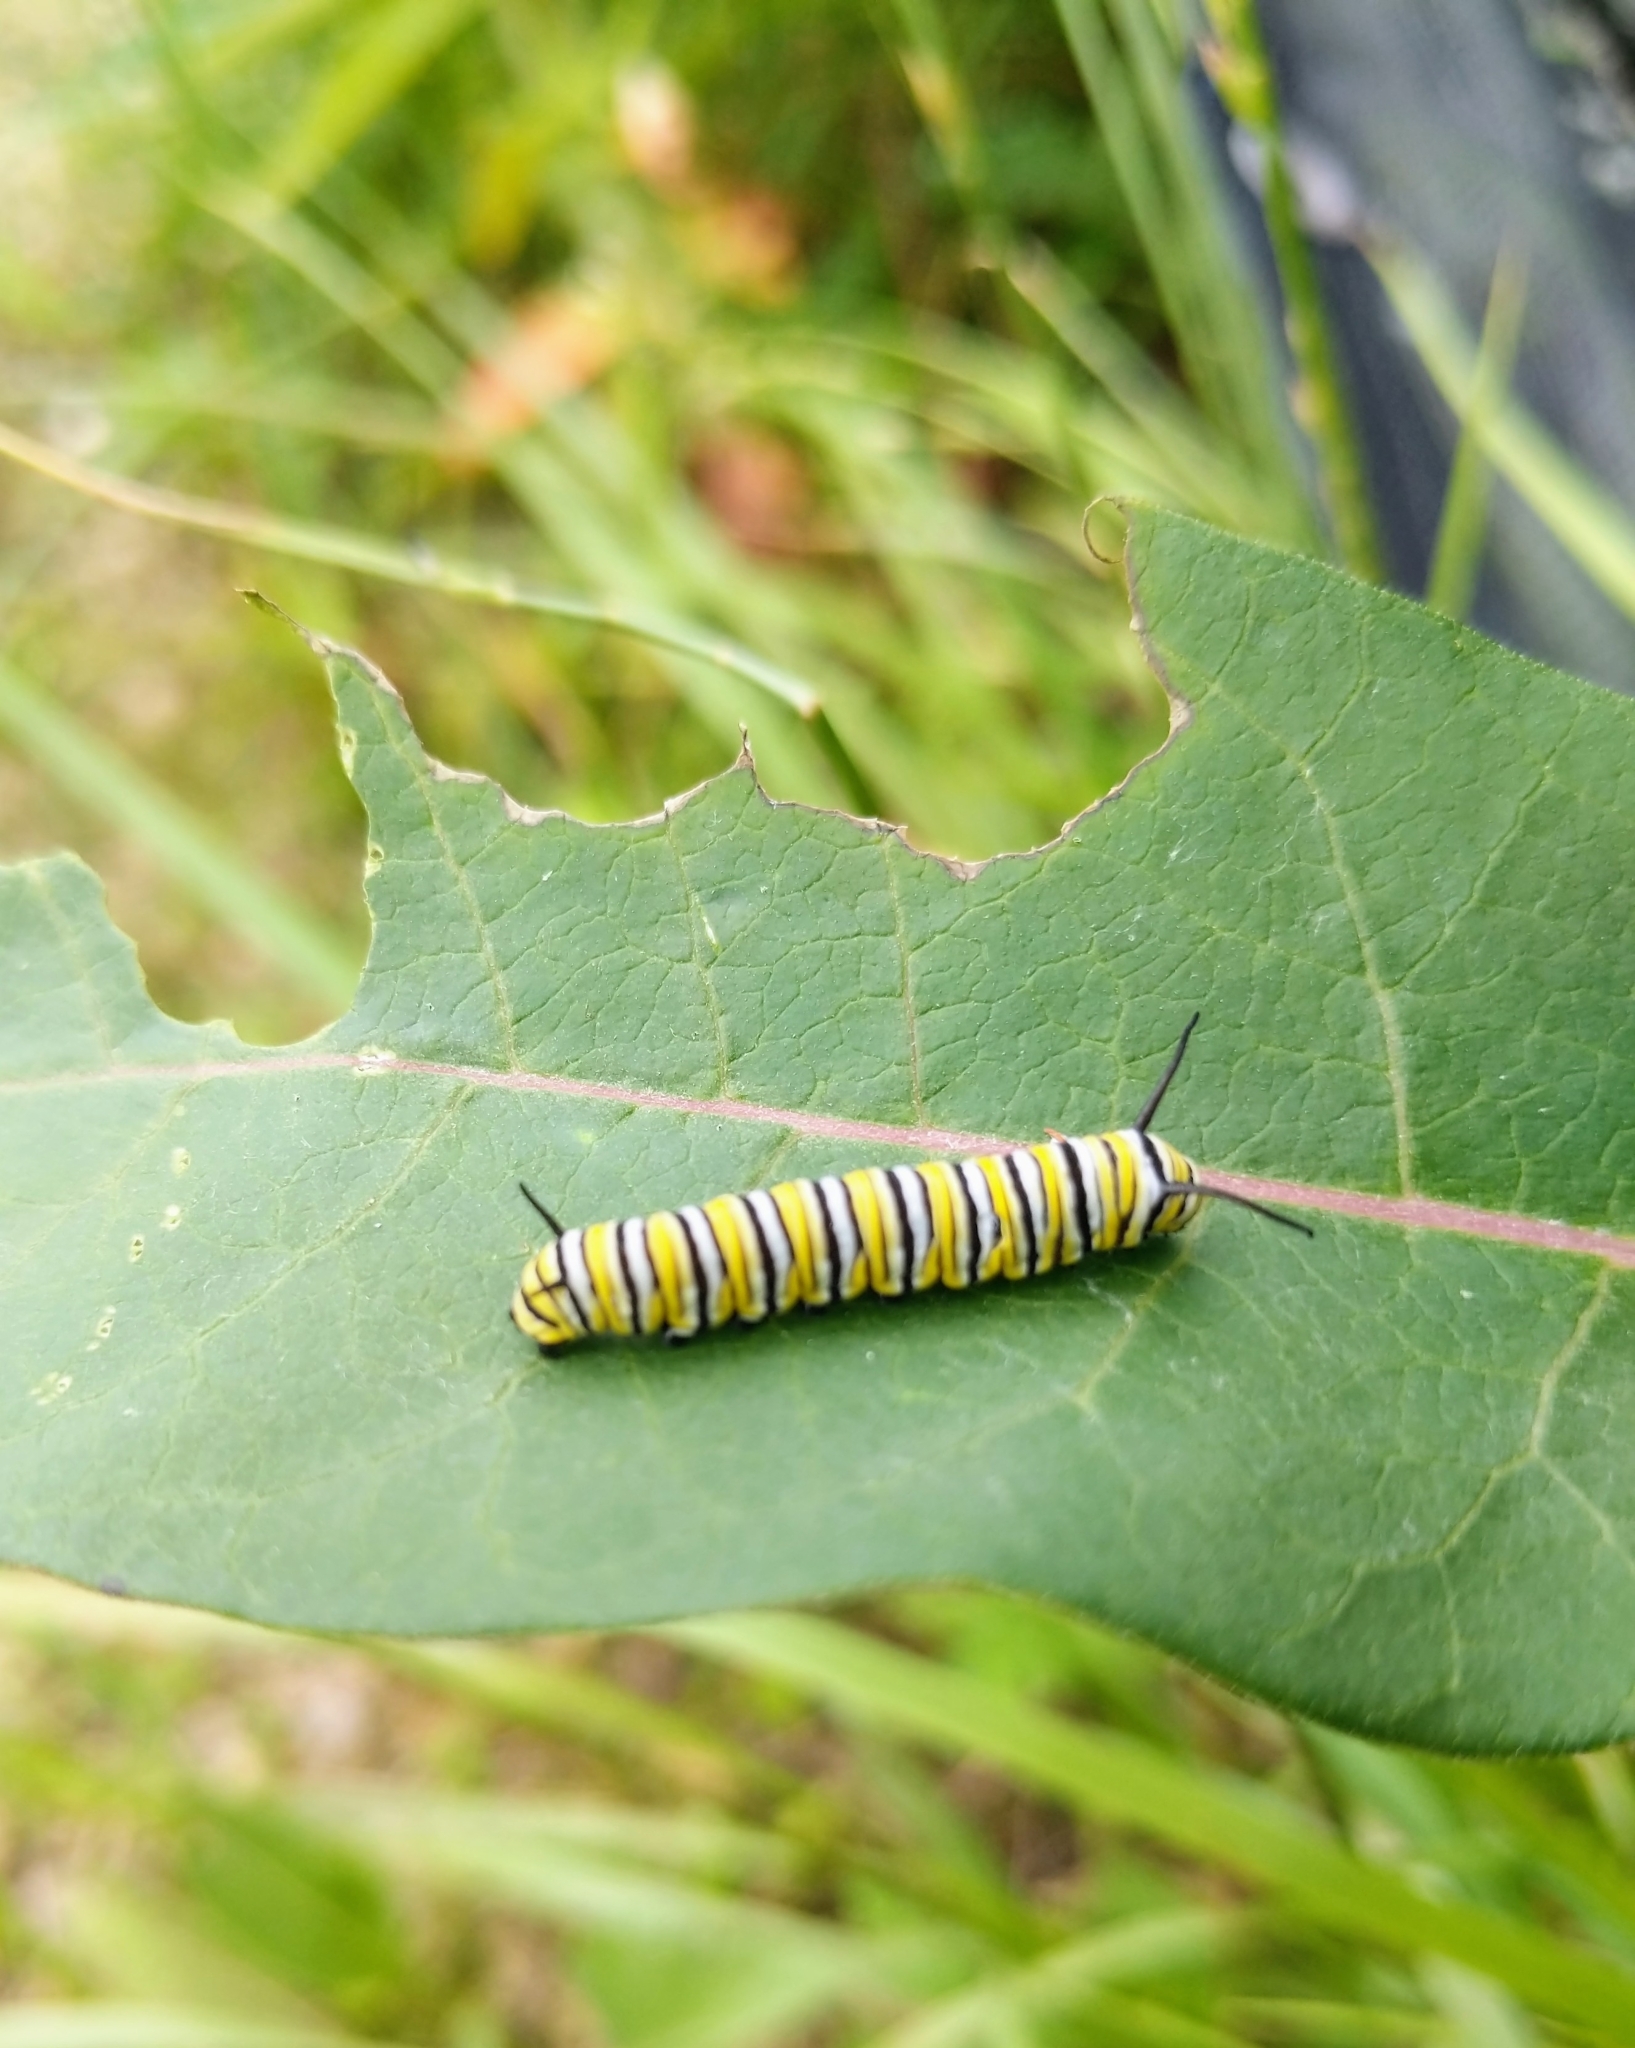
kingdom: Animalia
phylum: Arthropoda
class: Insecta
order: Lepidoptera
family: Nymphalidae
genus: Danaus
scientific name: Danaus plexippus
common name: Monarch
